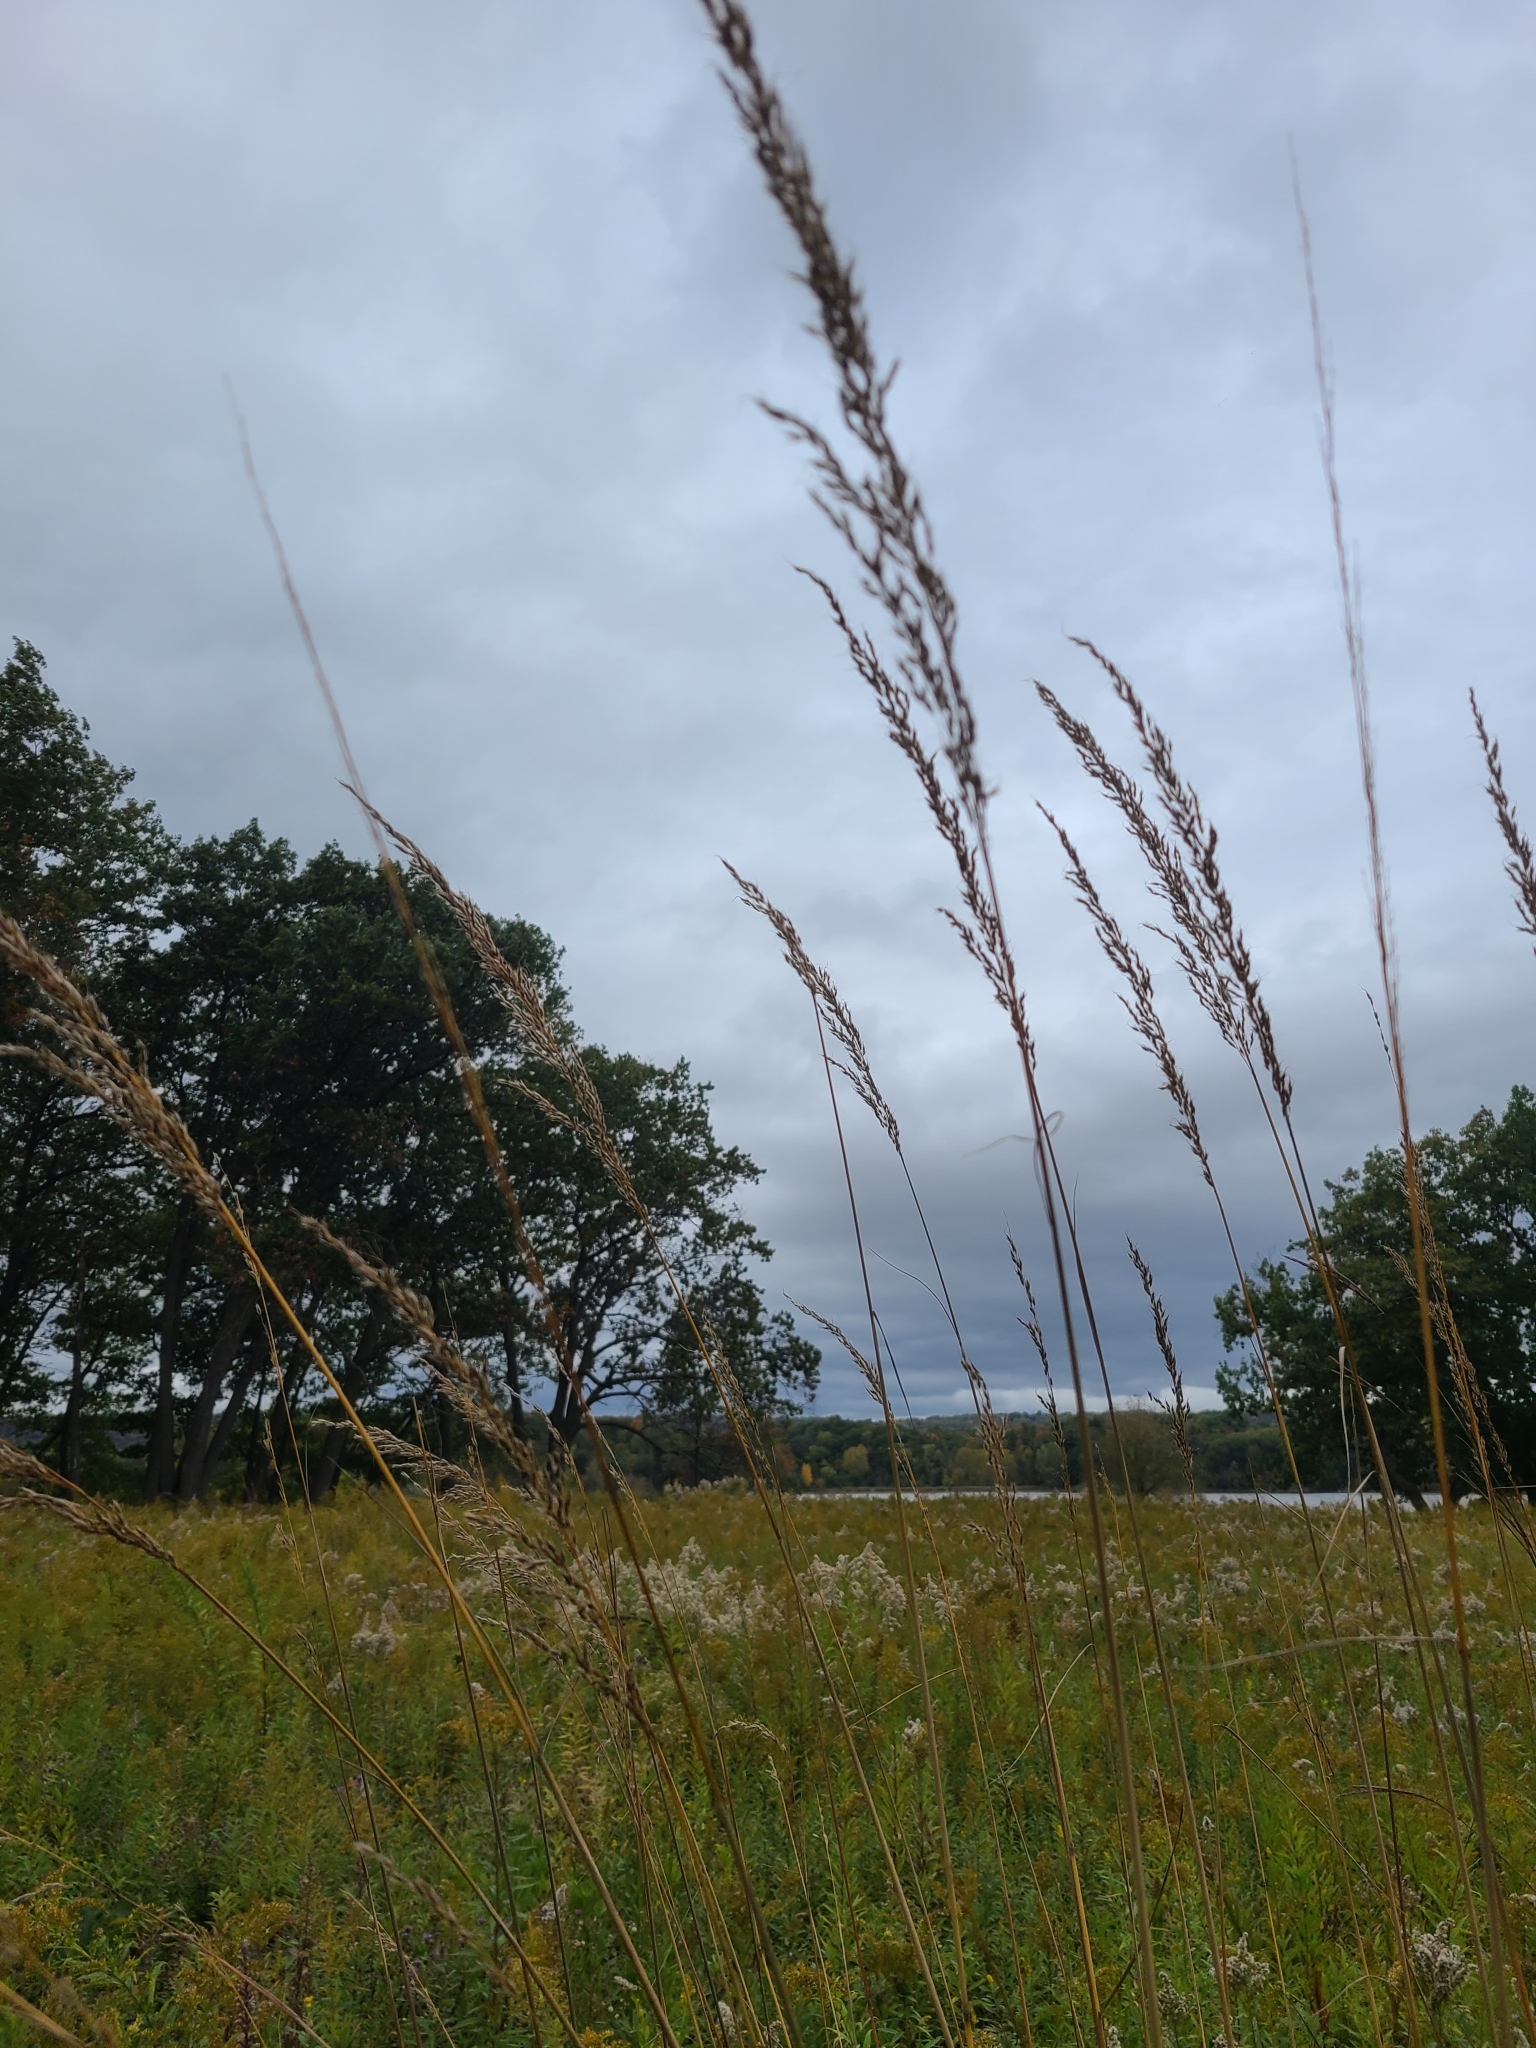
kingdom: Plantae
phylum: Tracheophyta
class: Liliopsida
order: Poales
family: Poaceae
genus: Sorghastrum
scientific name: Sorghastrum nutans
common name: Indian grass
